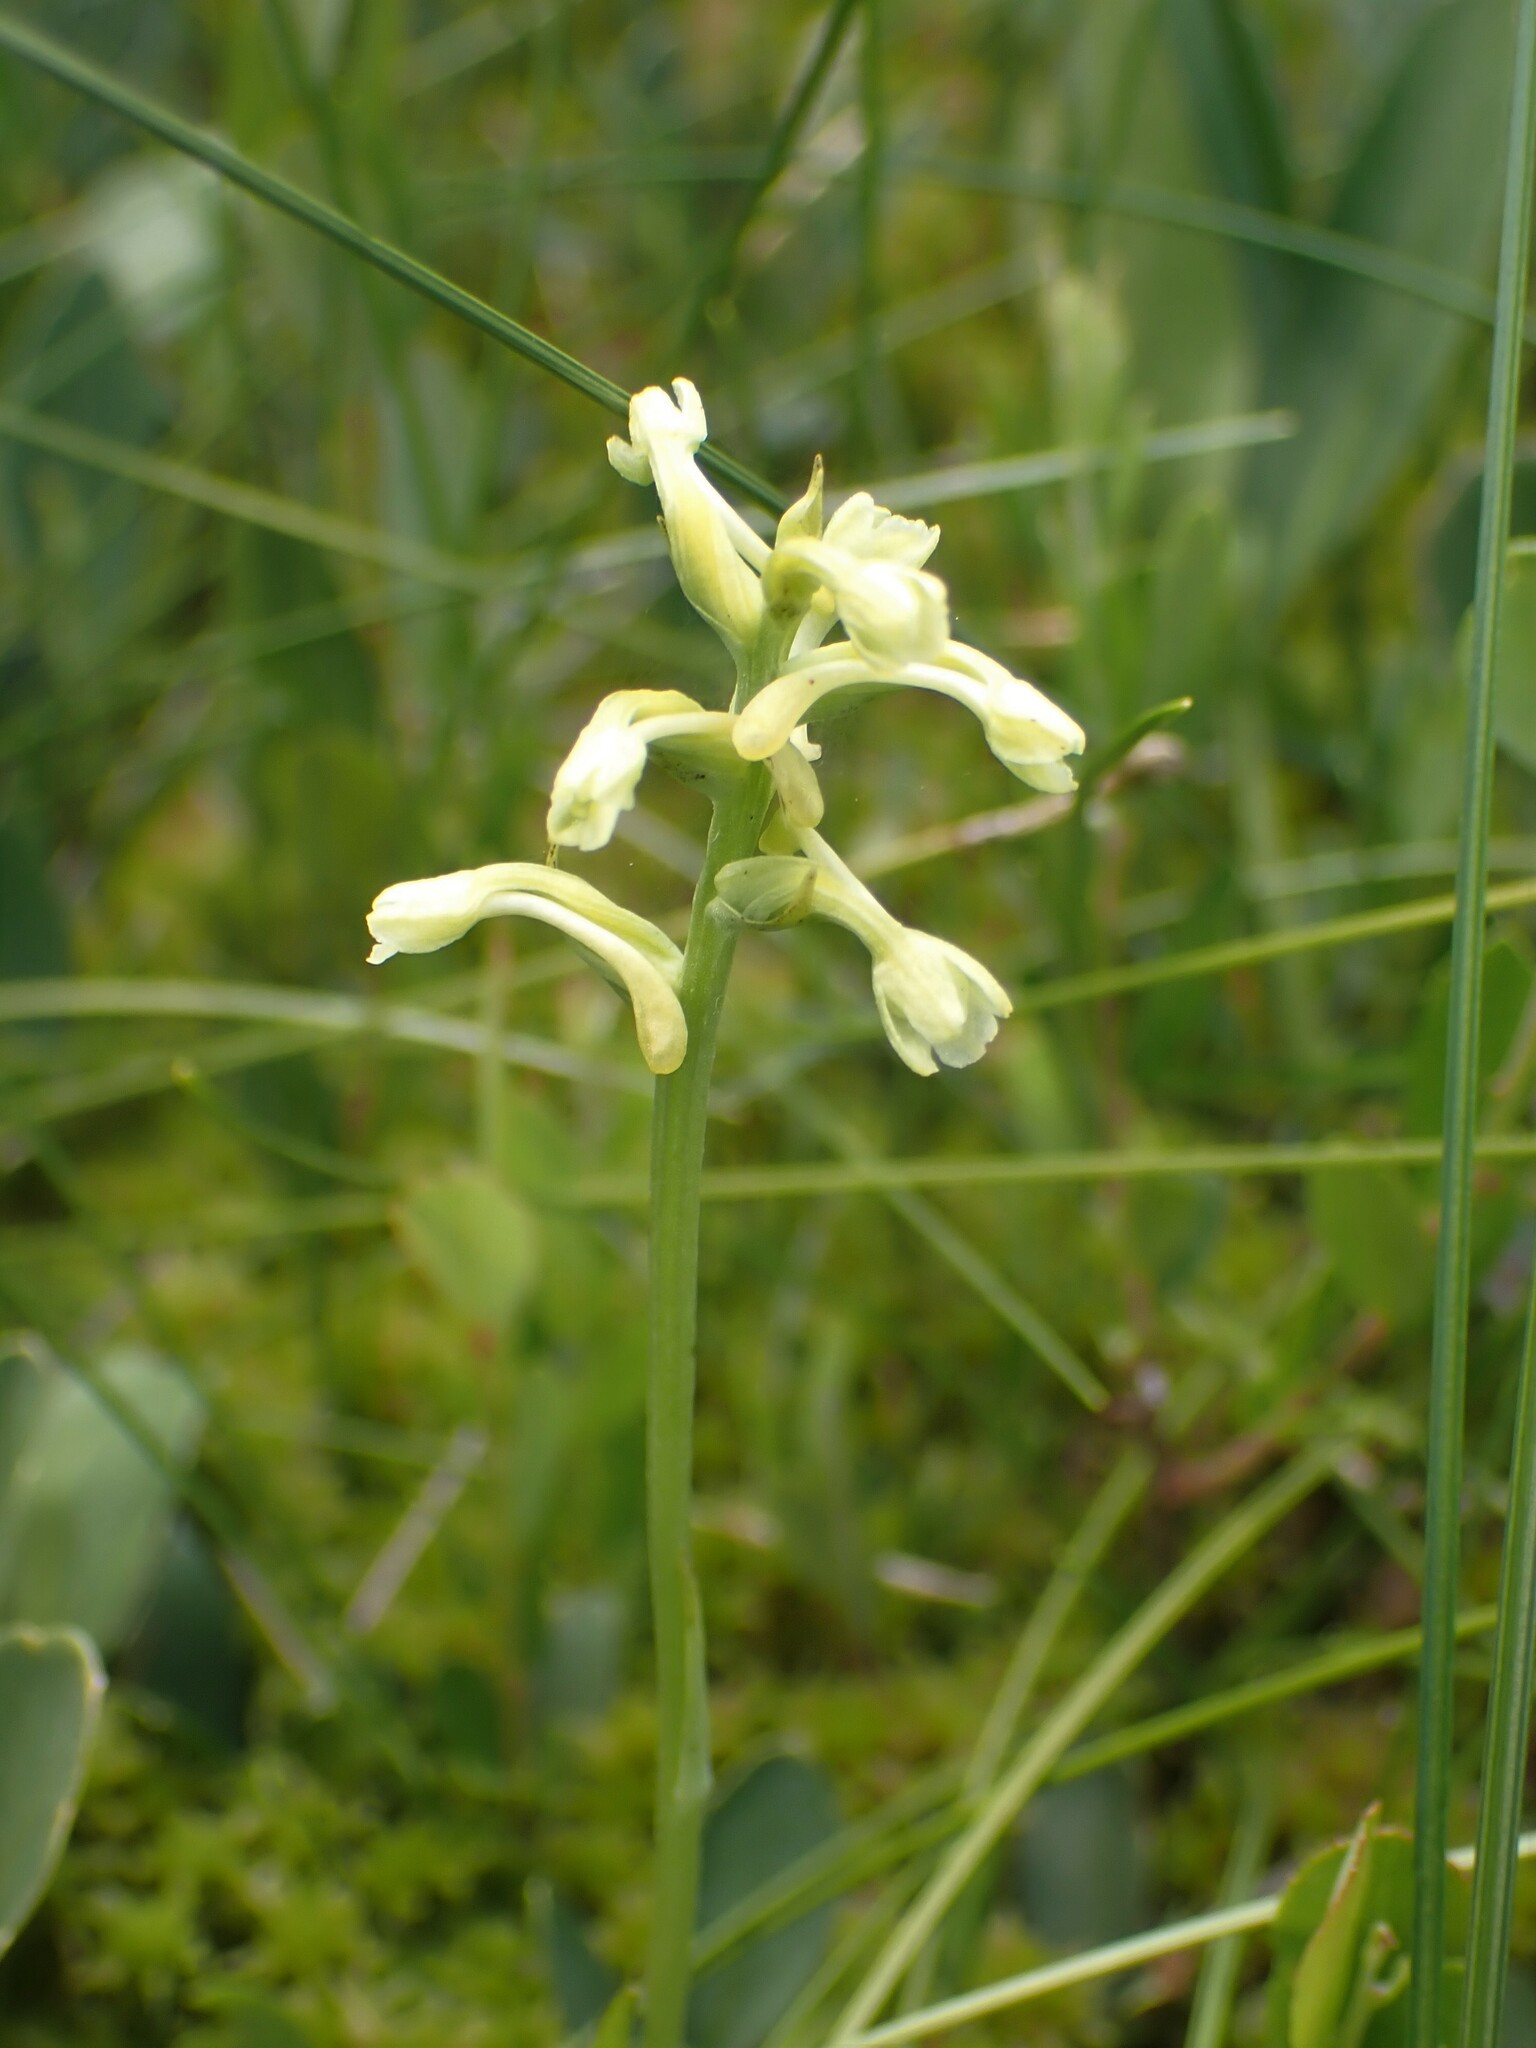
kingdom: Plantae
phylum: Tracheophyta
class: Liliopsida
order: Asparagales
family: Orchidaceae
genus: Platanthera
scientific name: Platanthera clavellata
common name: Club-spur orchid
